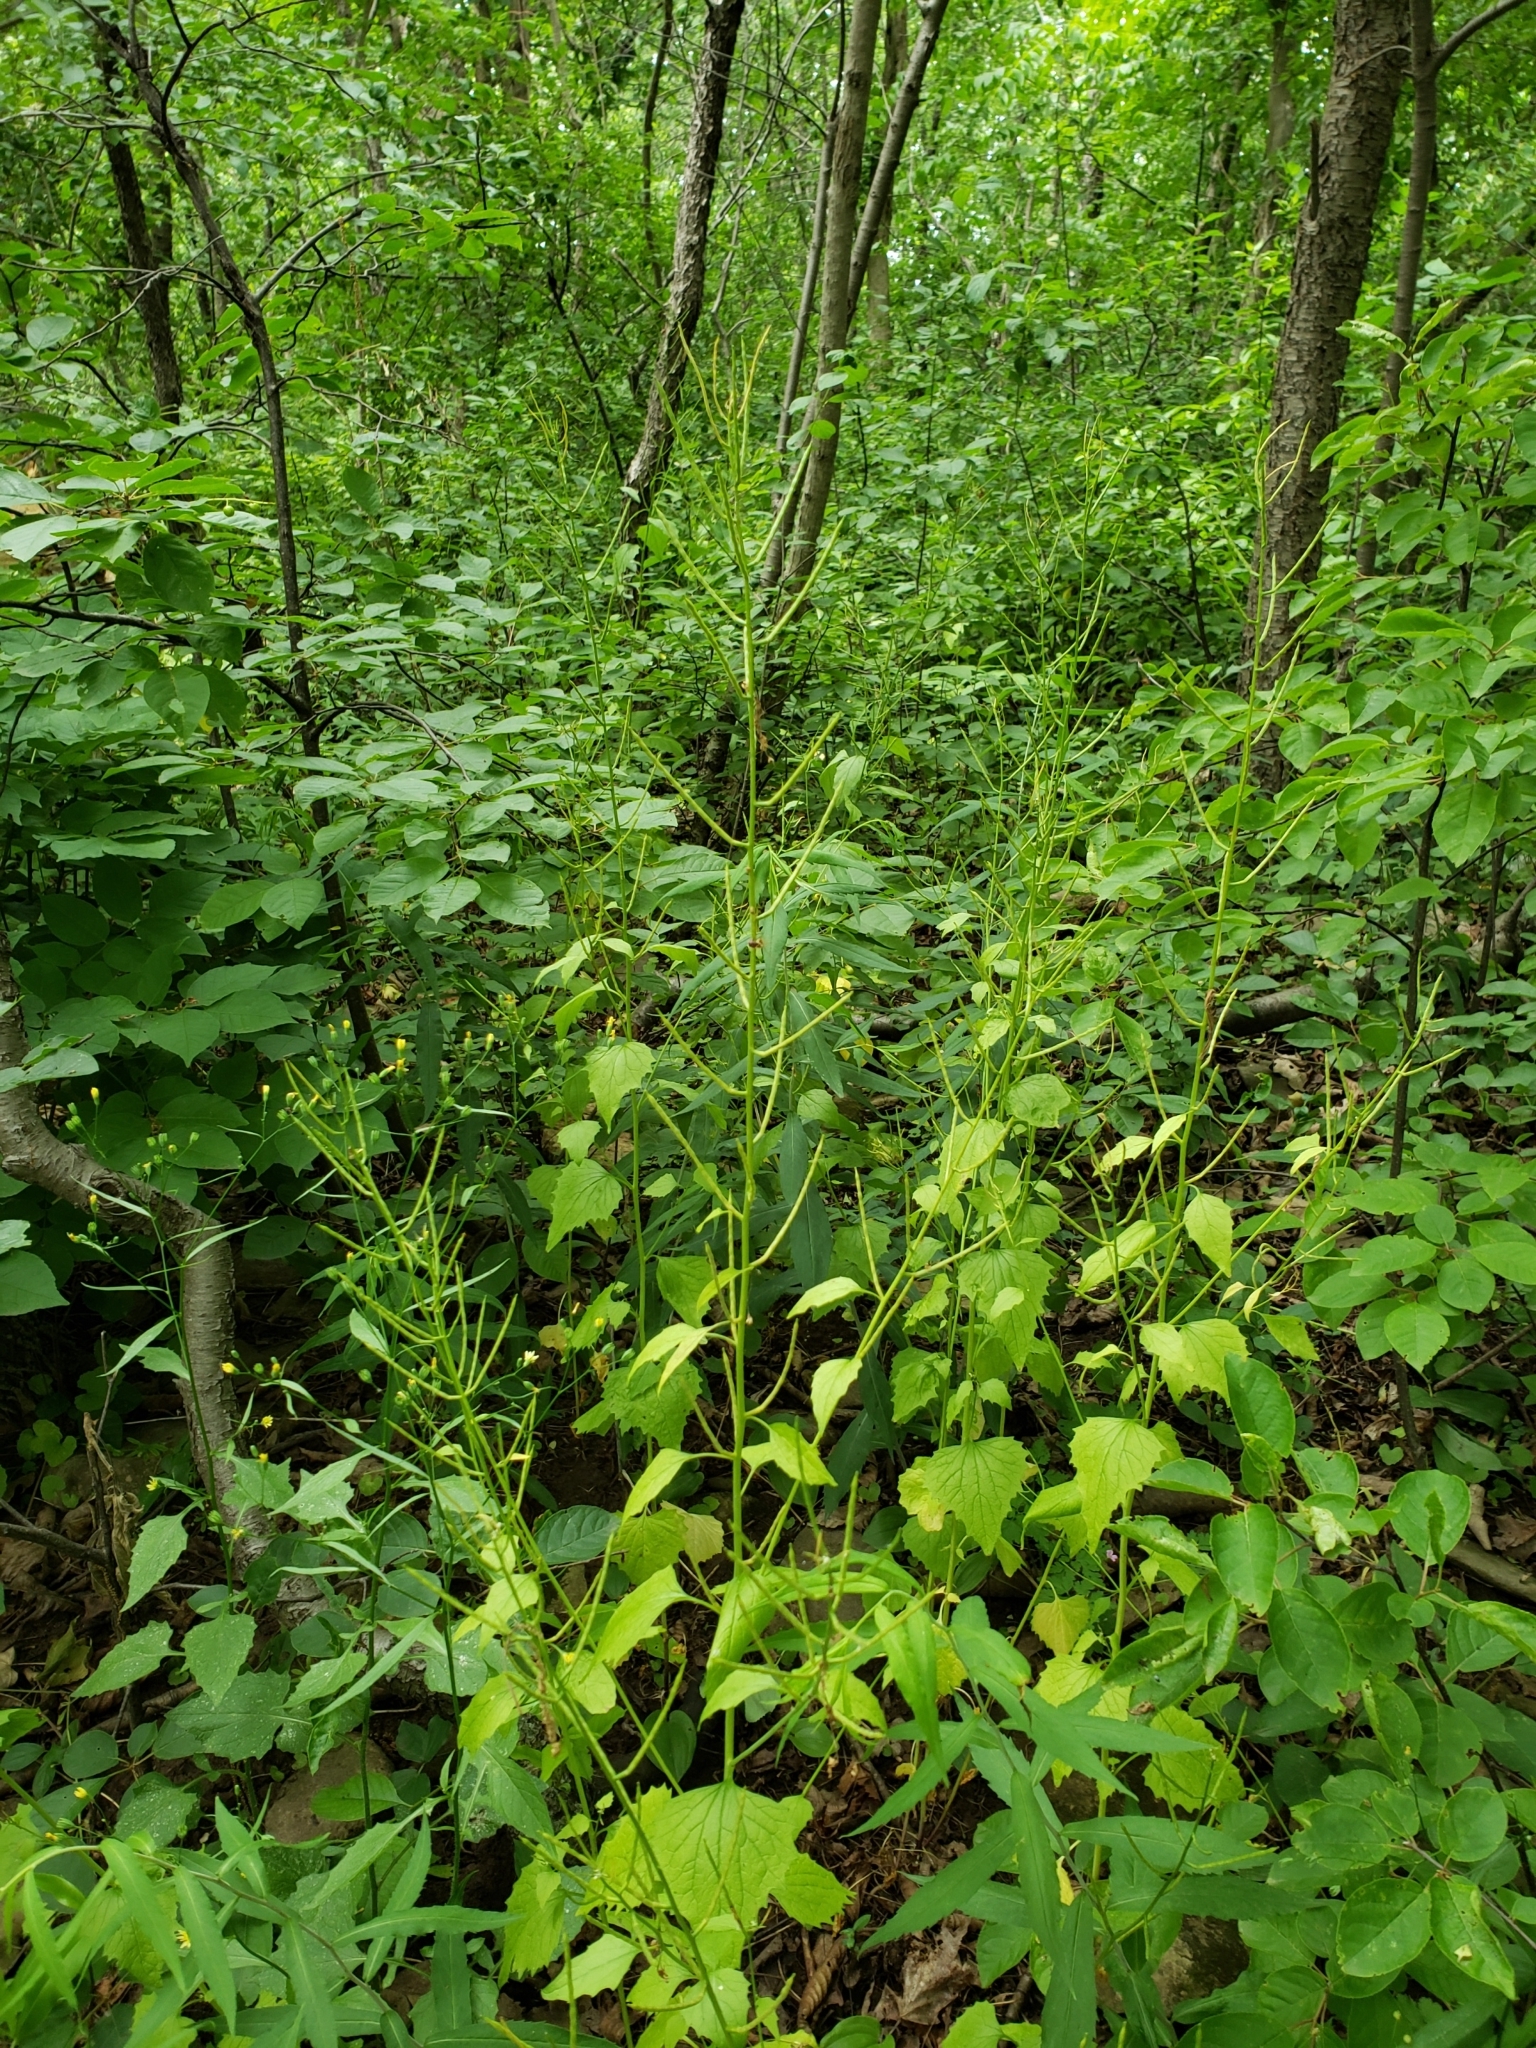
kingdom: Plantae
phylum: Tracheophyta
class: Magnoliopsida
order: Brassicales
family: Brassicaceae
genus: Alliaria
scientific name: Alliaria petiolata
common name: Garlic mustard
